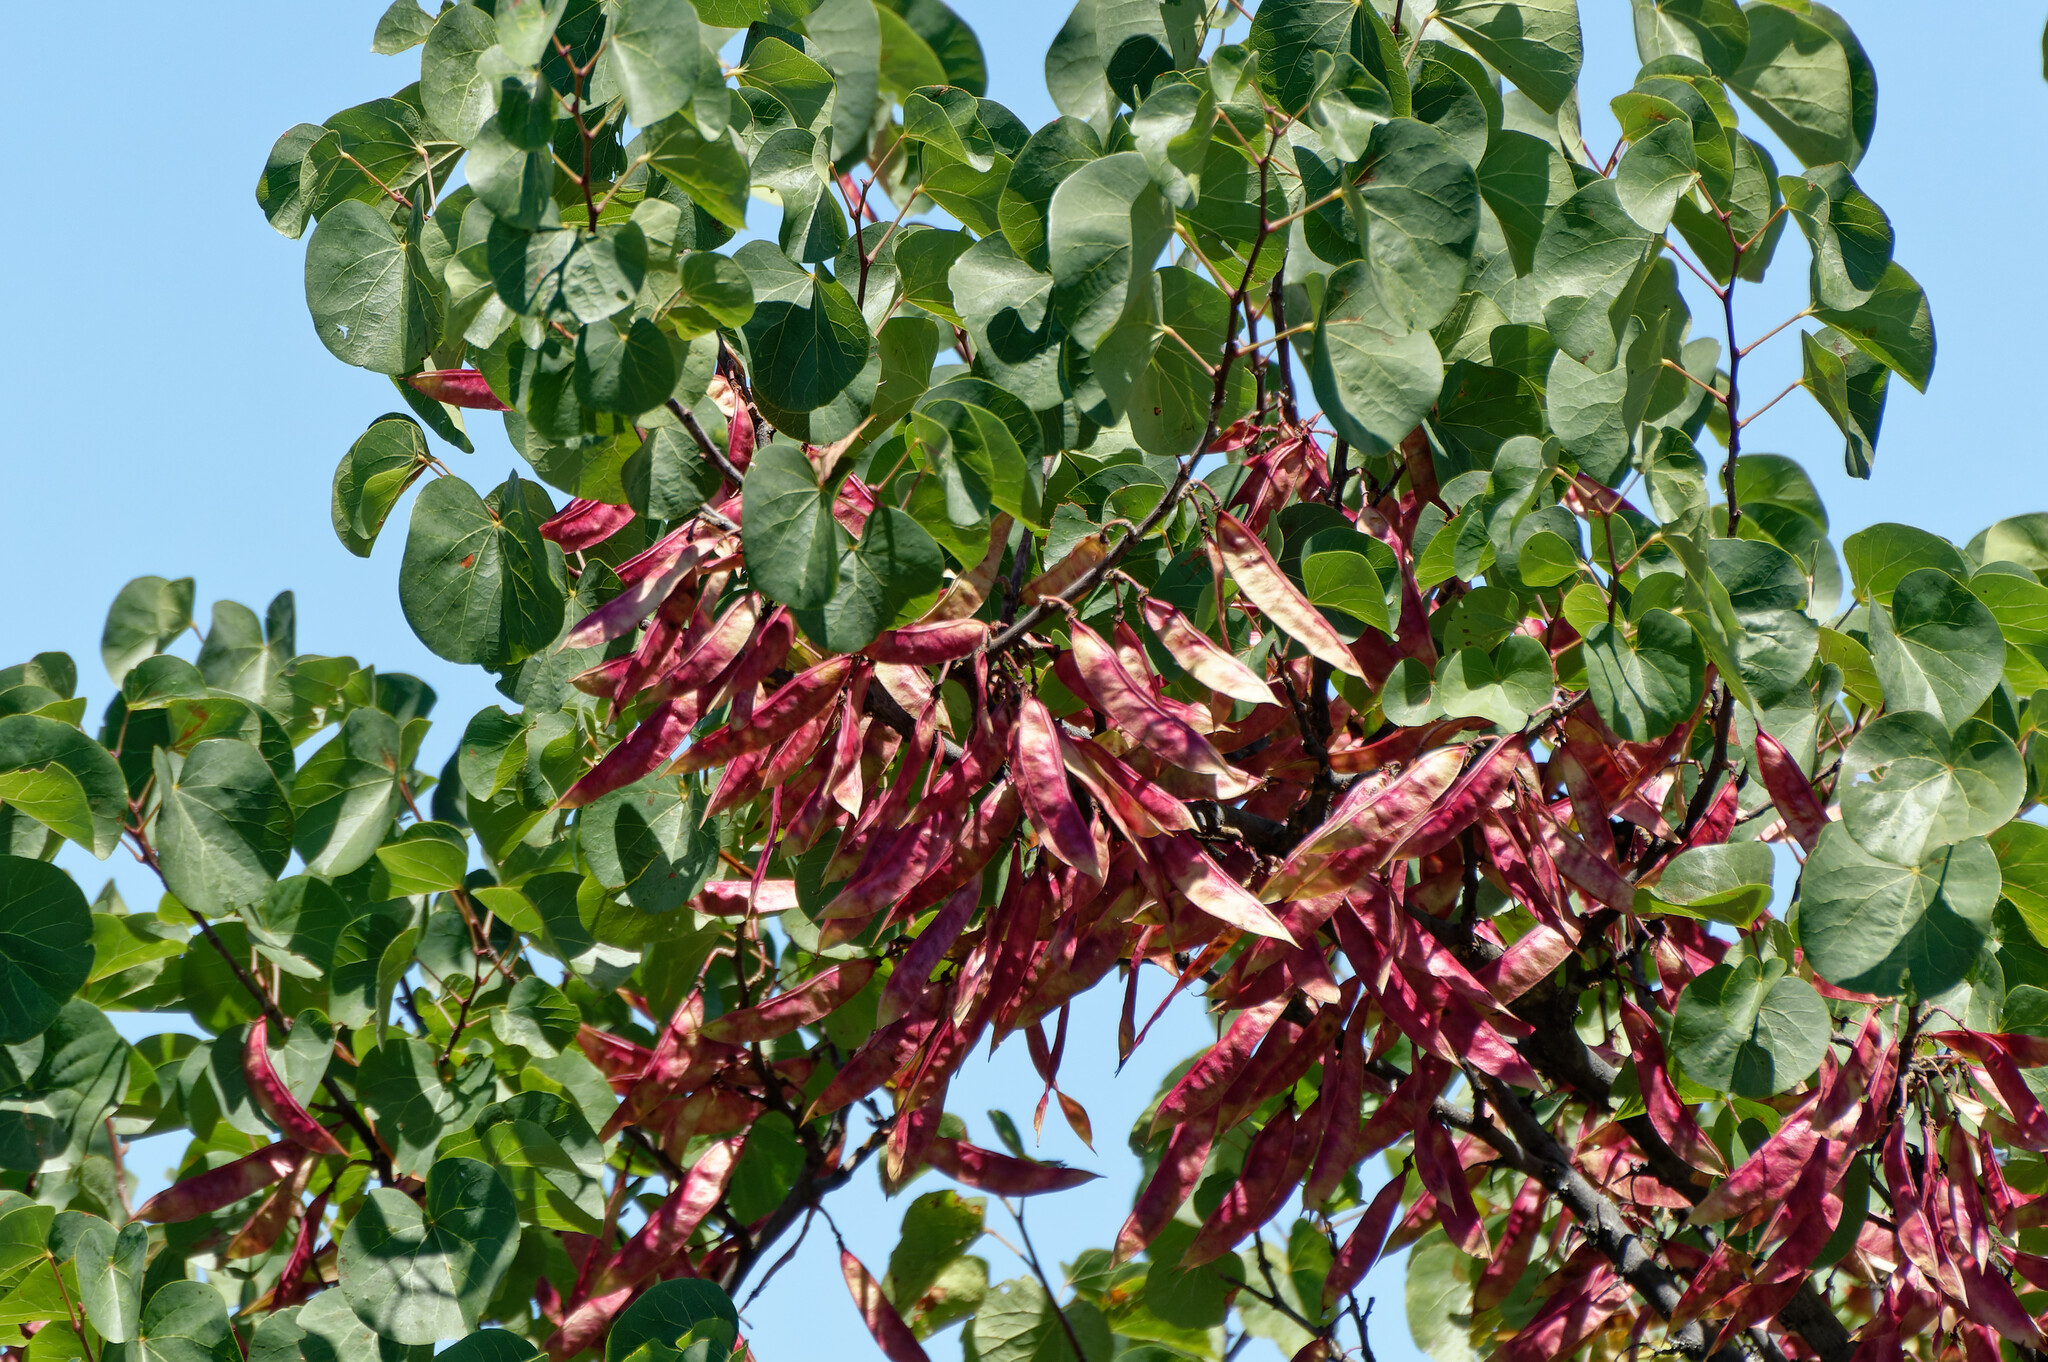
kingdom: Plantae
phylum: Tracheophyta
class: Magnoliopsida
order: Fabales
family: Fabaceae
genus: Cercis
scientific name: Cercis siliquastrum
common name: Judas tree
